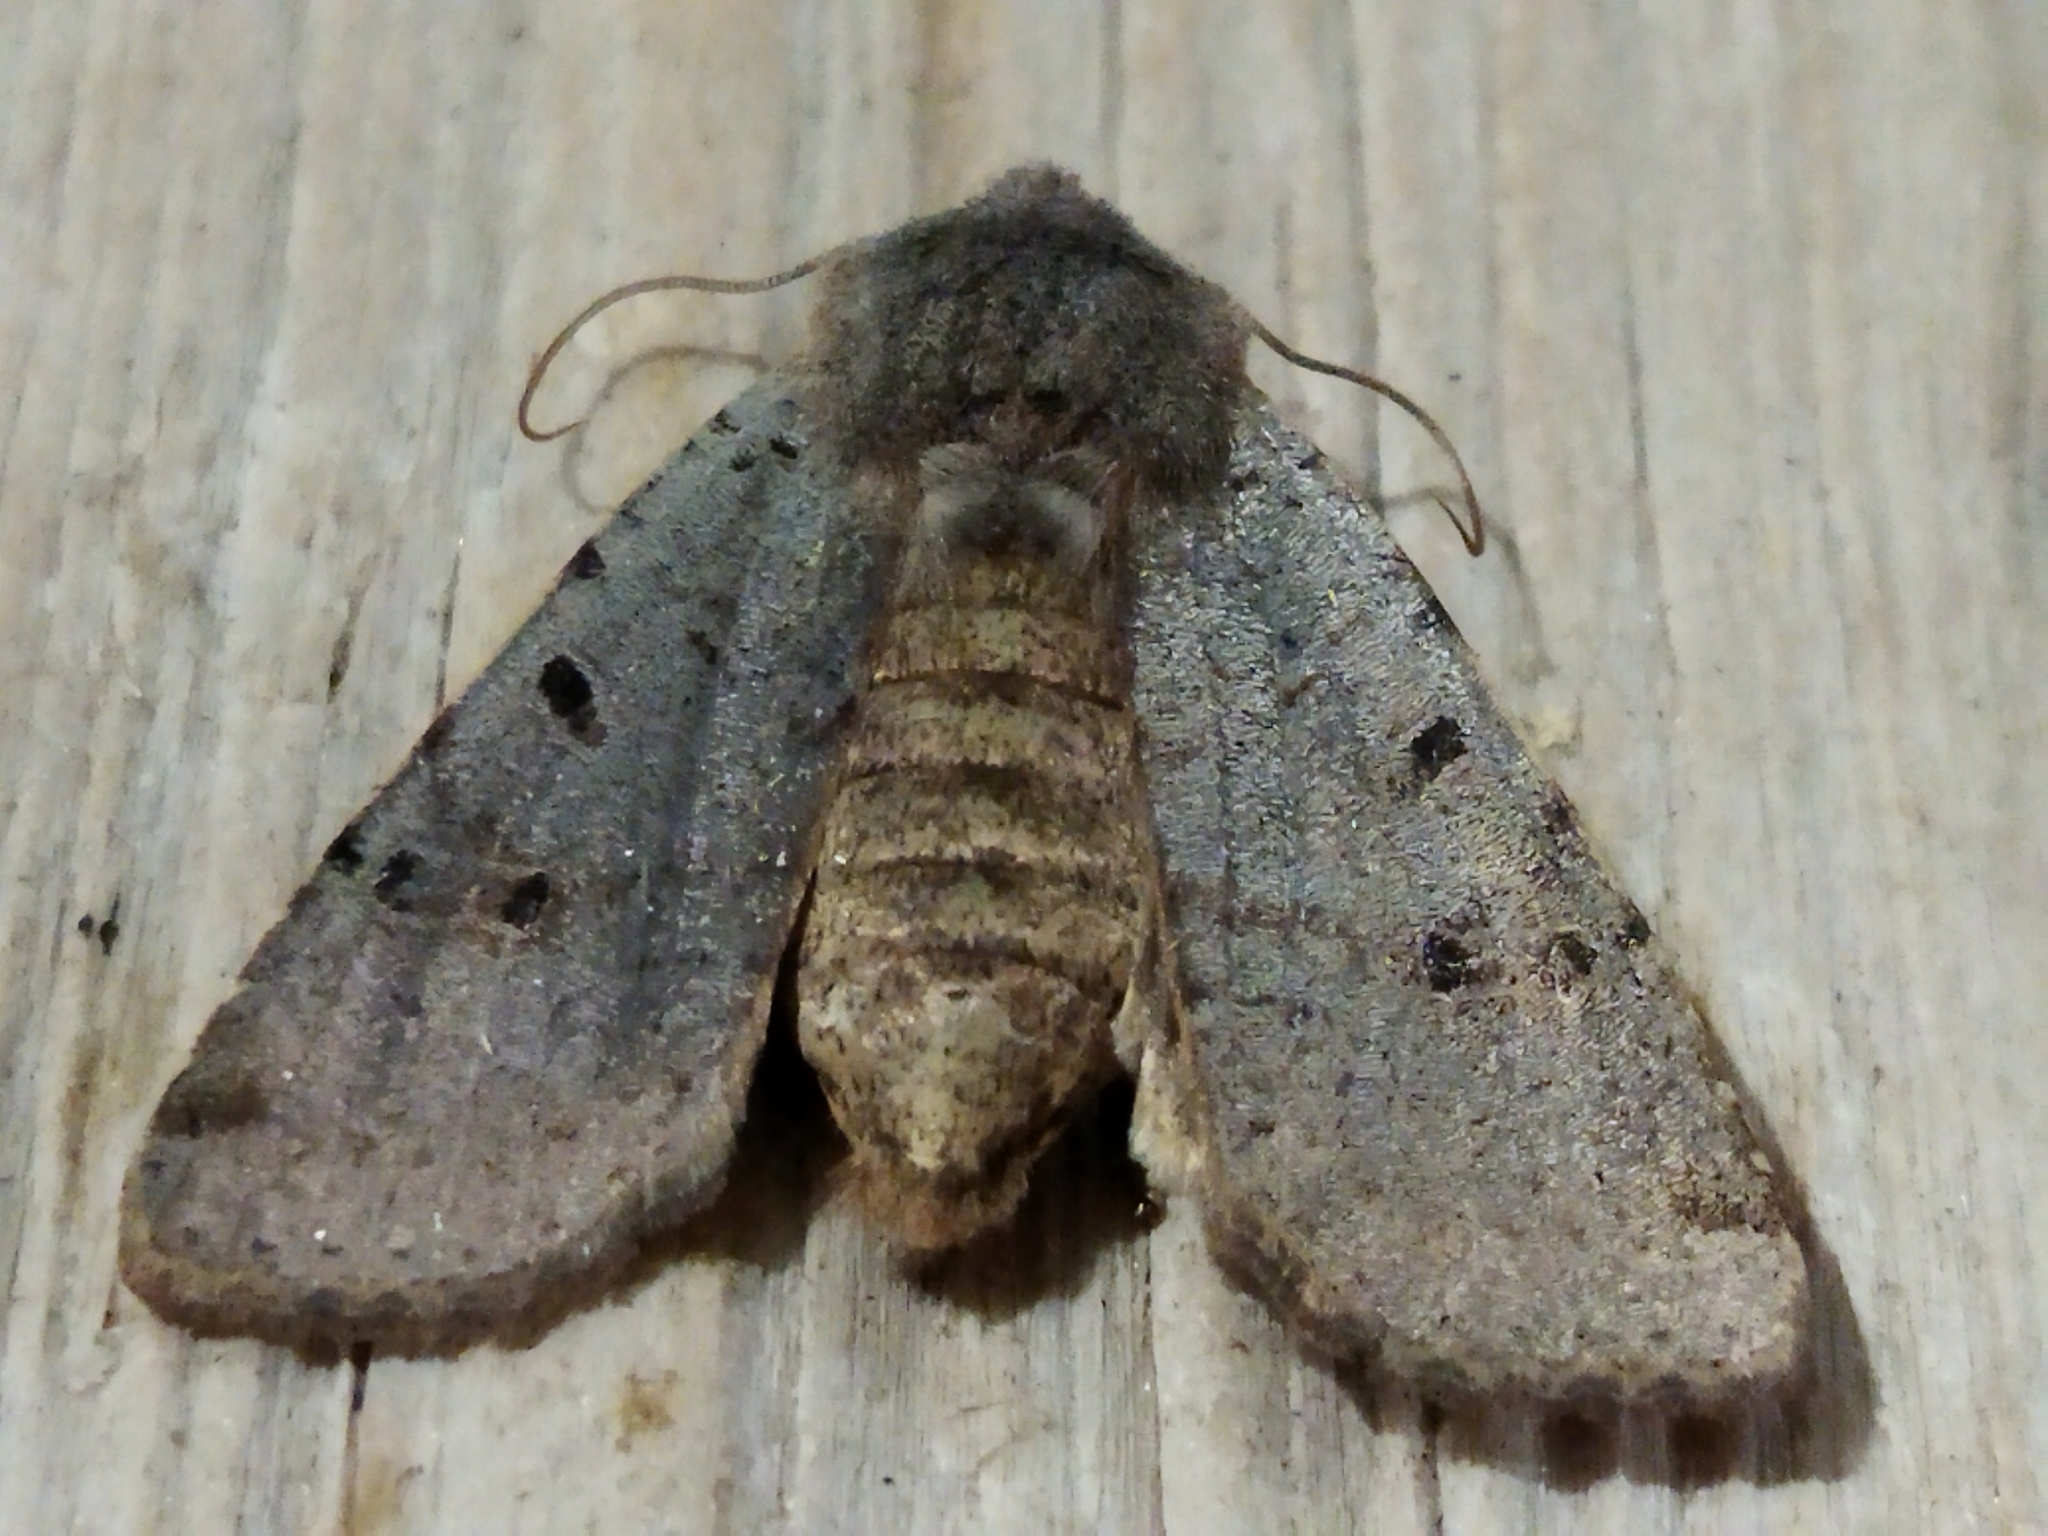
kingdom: Animalia
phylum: Arthropoda
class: Insecta
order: Lepidoptera
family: Noctuidae
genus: Agrochola
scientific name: Agrochola lychnidis
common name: Beaded chestnut
